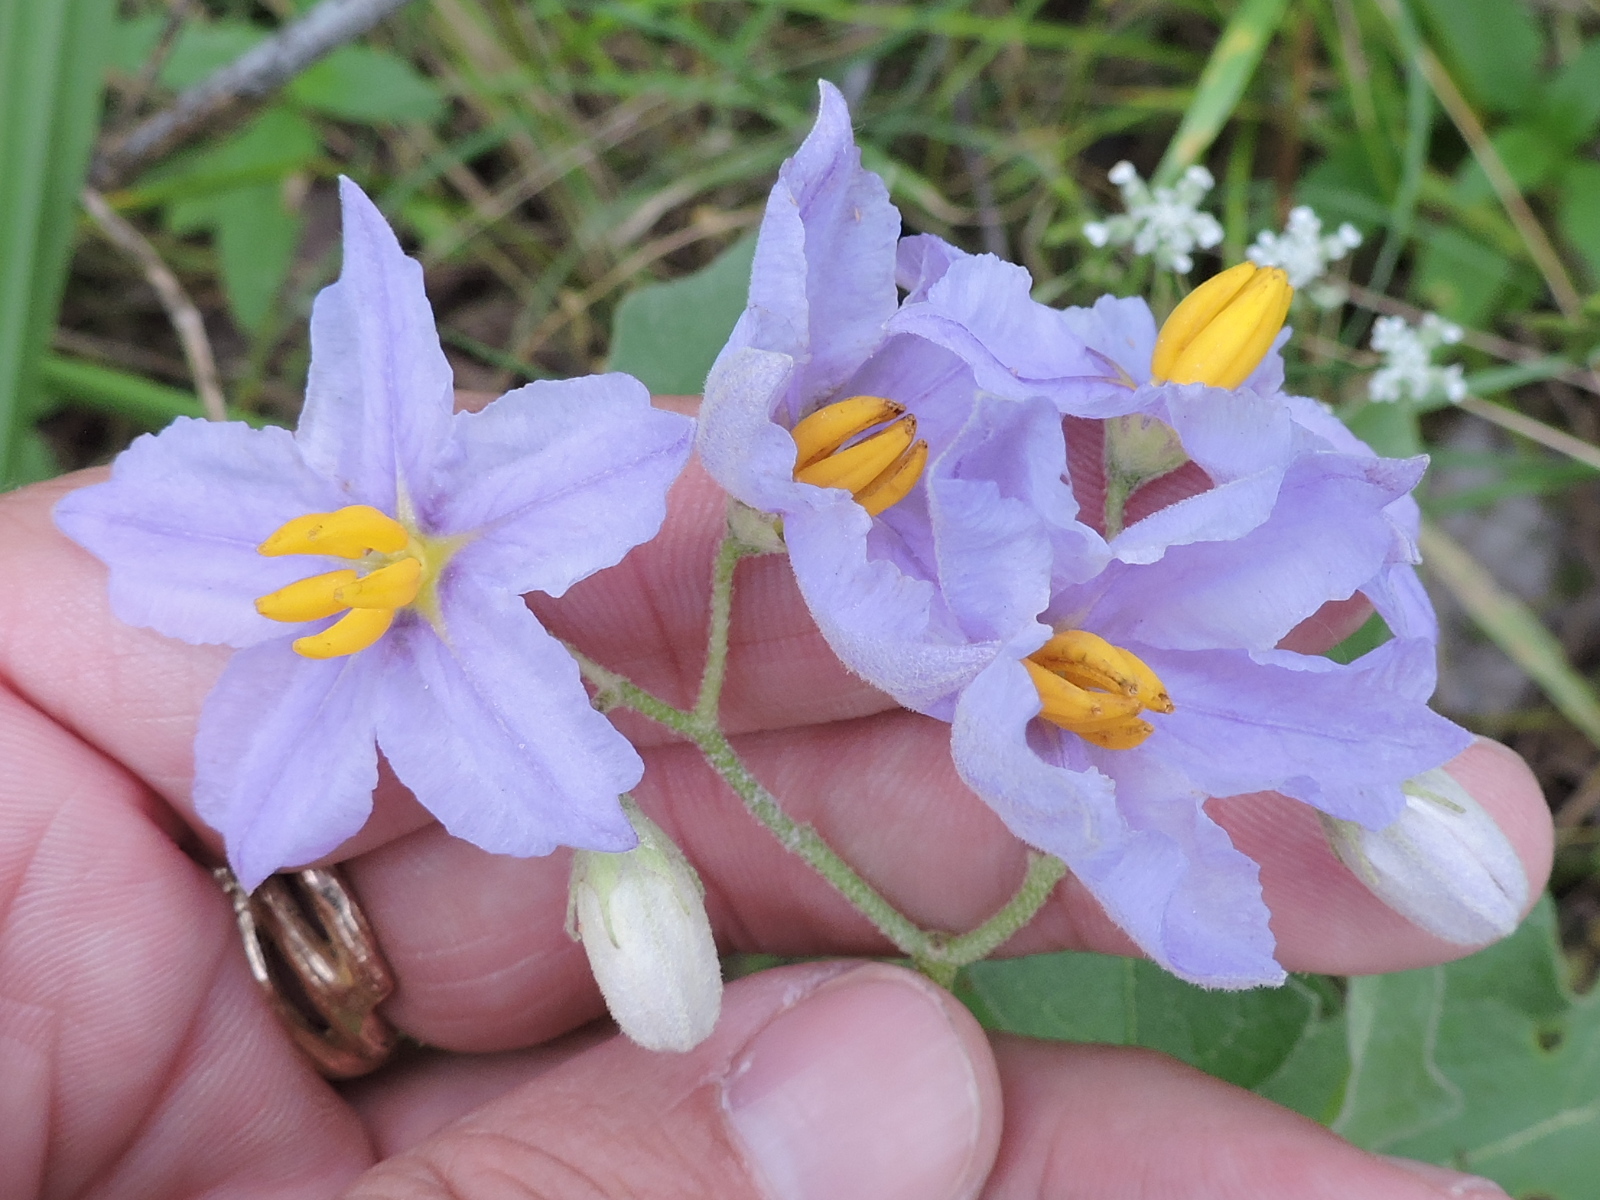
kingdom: Plantae
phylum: Tracheophyta
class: Magnoliopsida
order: Solanales
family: Solanaceae
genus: Solanum
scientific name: Solanum dimidiatum
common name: Carolina horse-nettle
